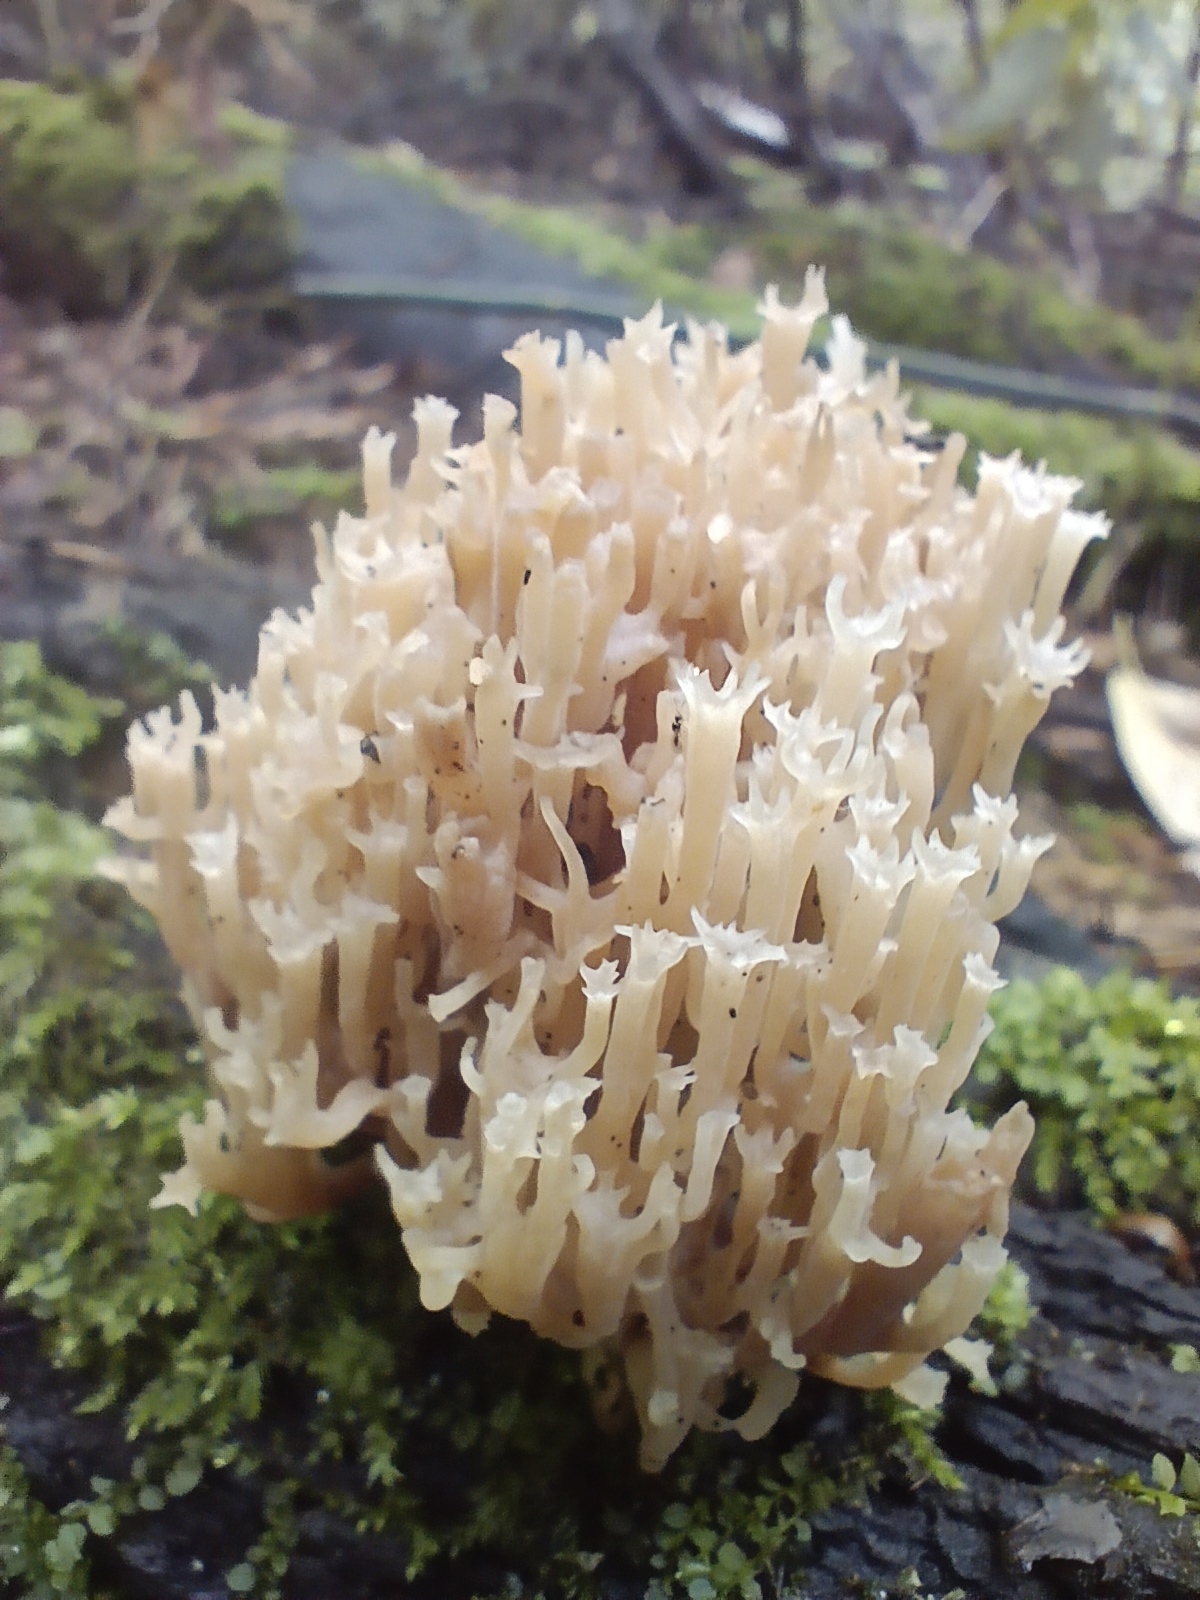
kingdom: Fungi
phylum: Basidiomycota
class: Agaricomycetes
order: Russulales
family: Auriscalpiaceae
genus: Artomyces
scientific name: Artomyces pyxidatus
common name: Crown-tipped coral fungus
